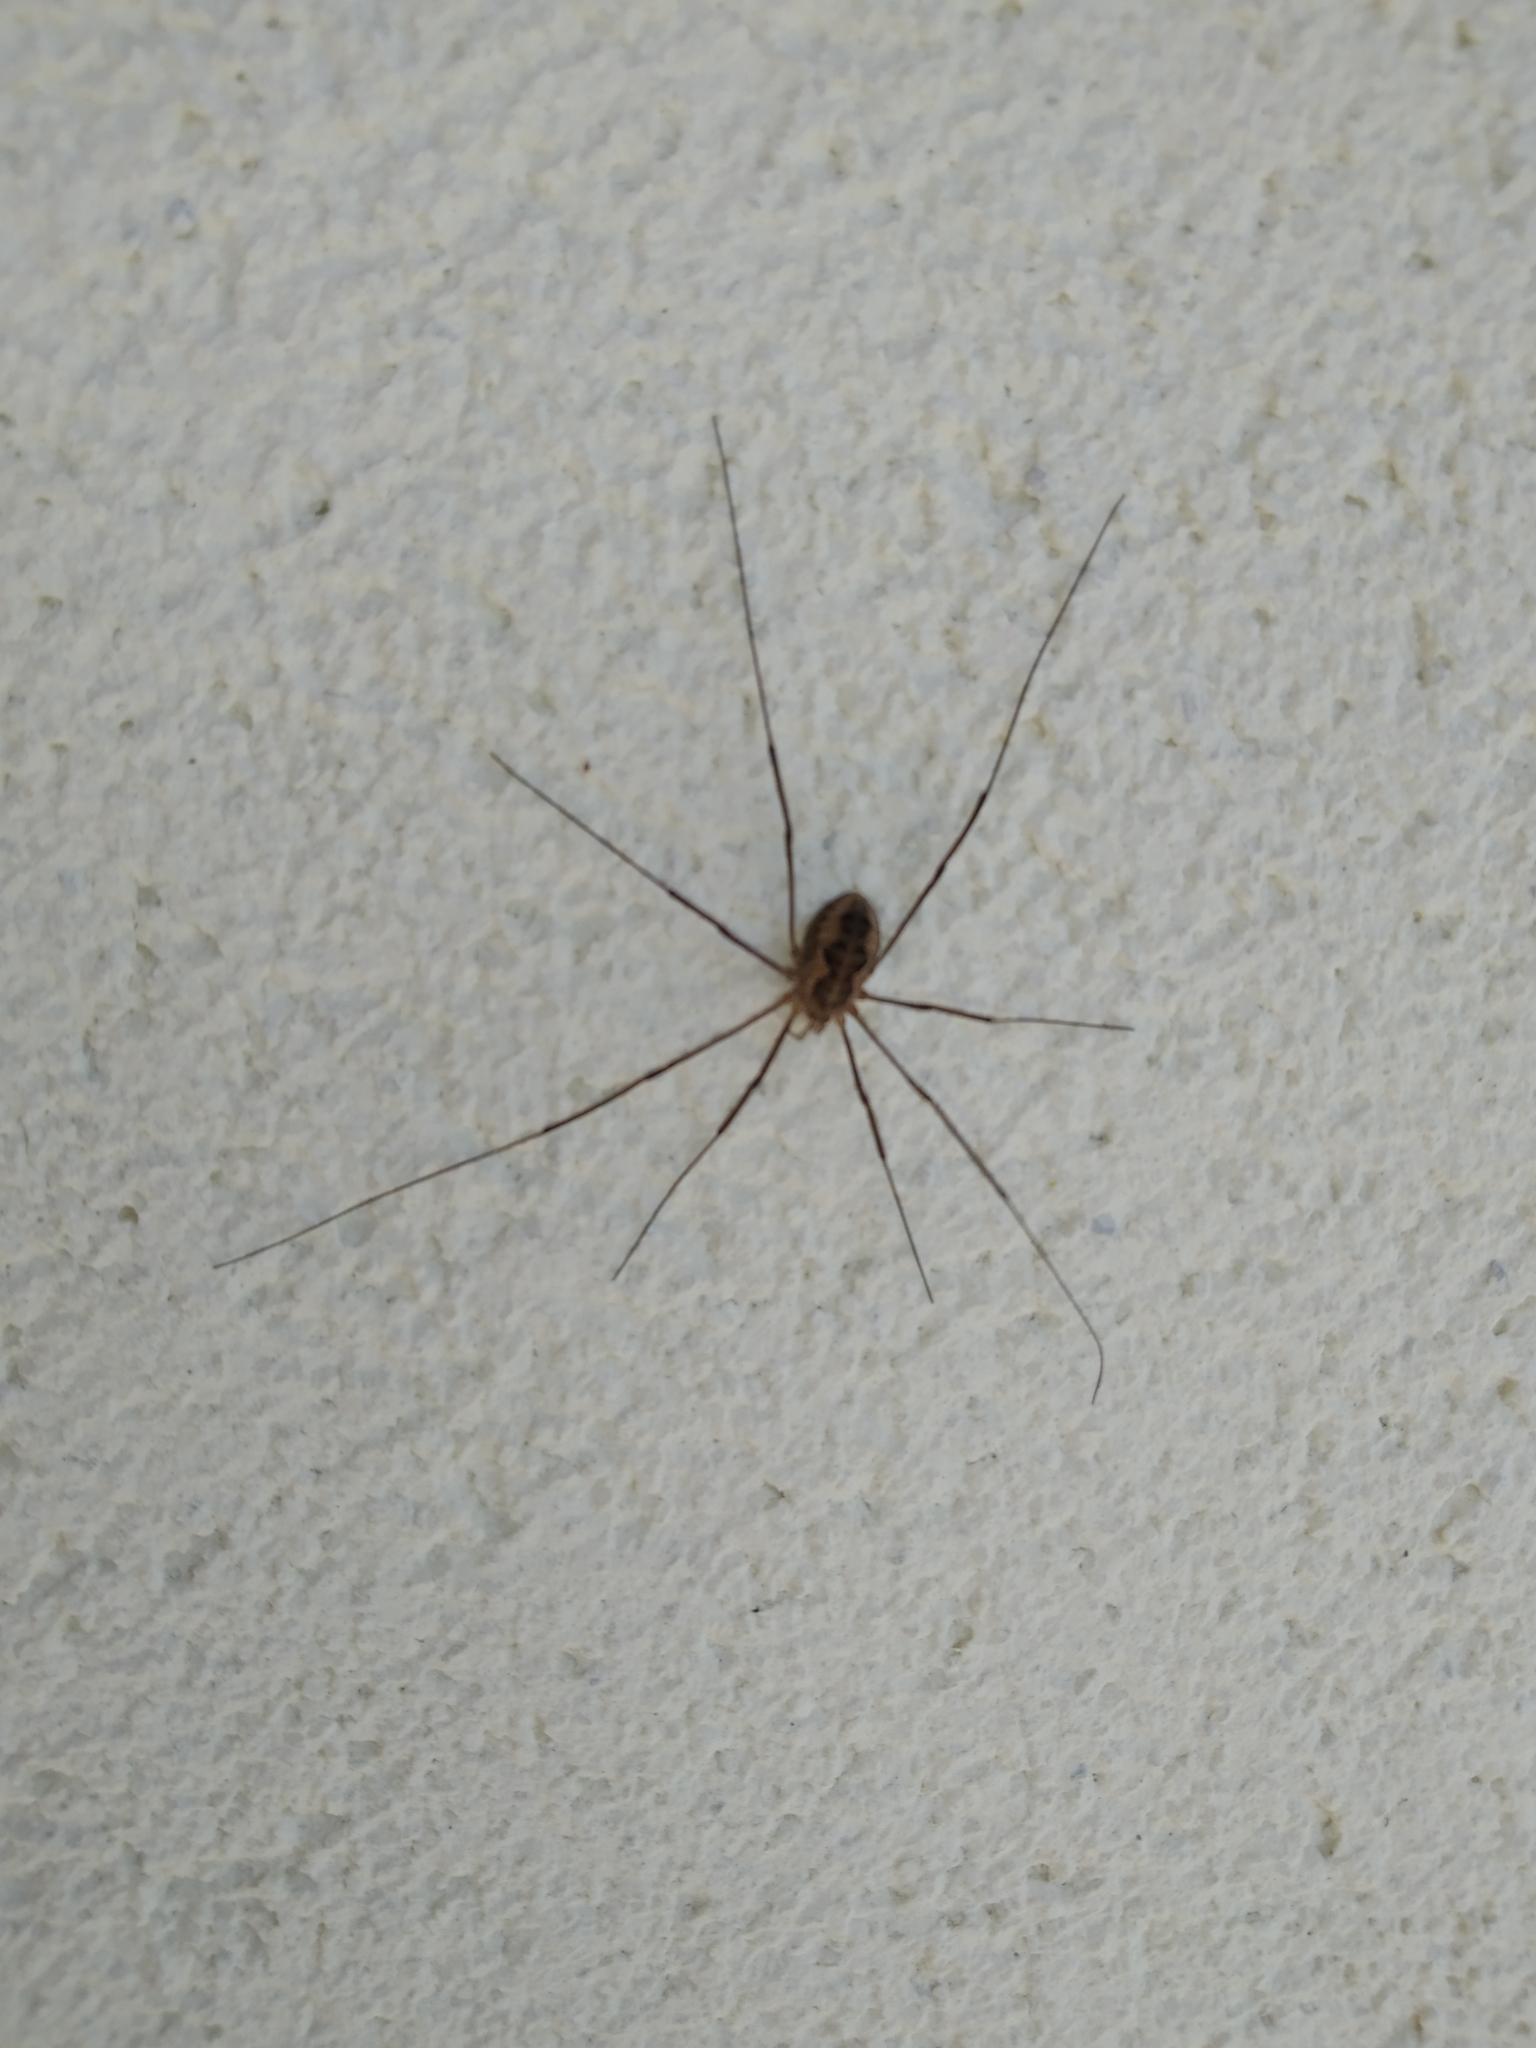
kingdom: Animalia
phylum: Arthropoda
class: Arachnida
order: Opiliones
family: Phalangiidae
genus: Phalangium
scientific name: Phalangium opilio
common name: Daddy longleg
